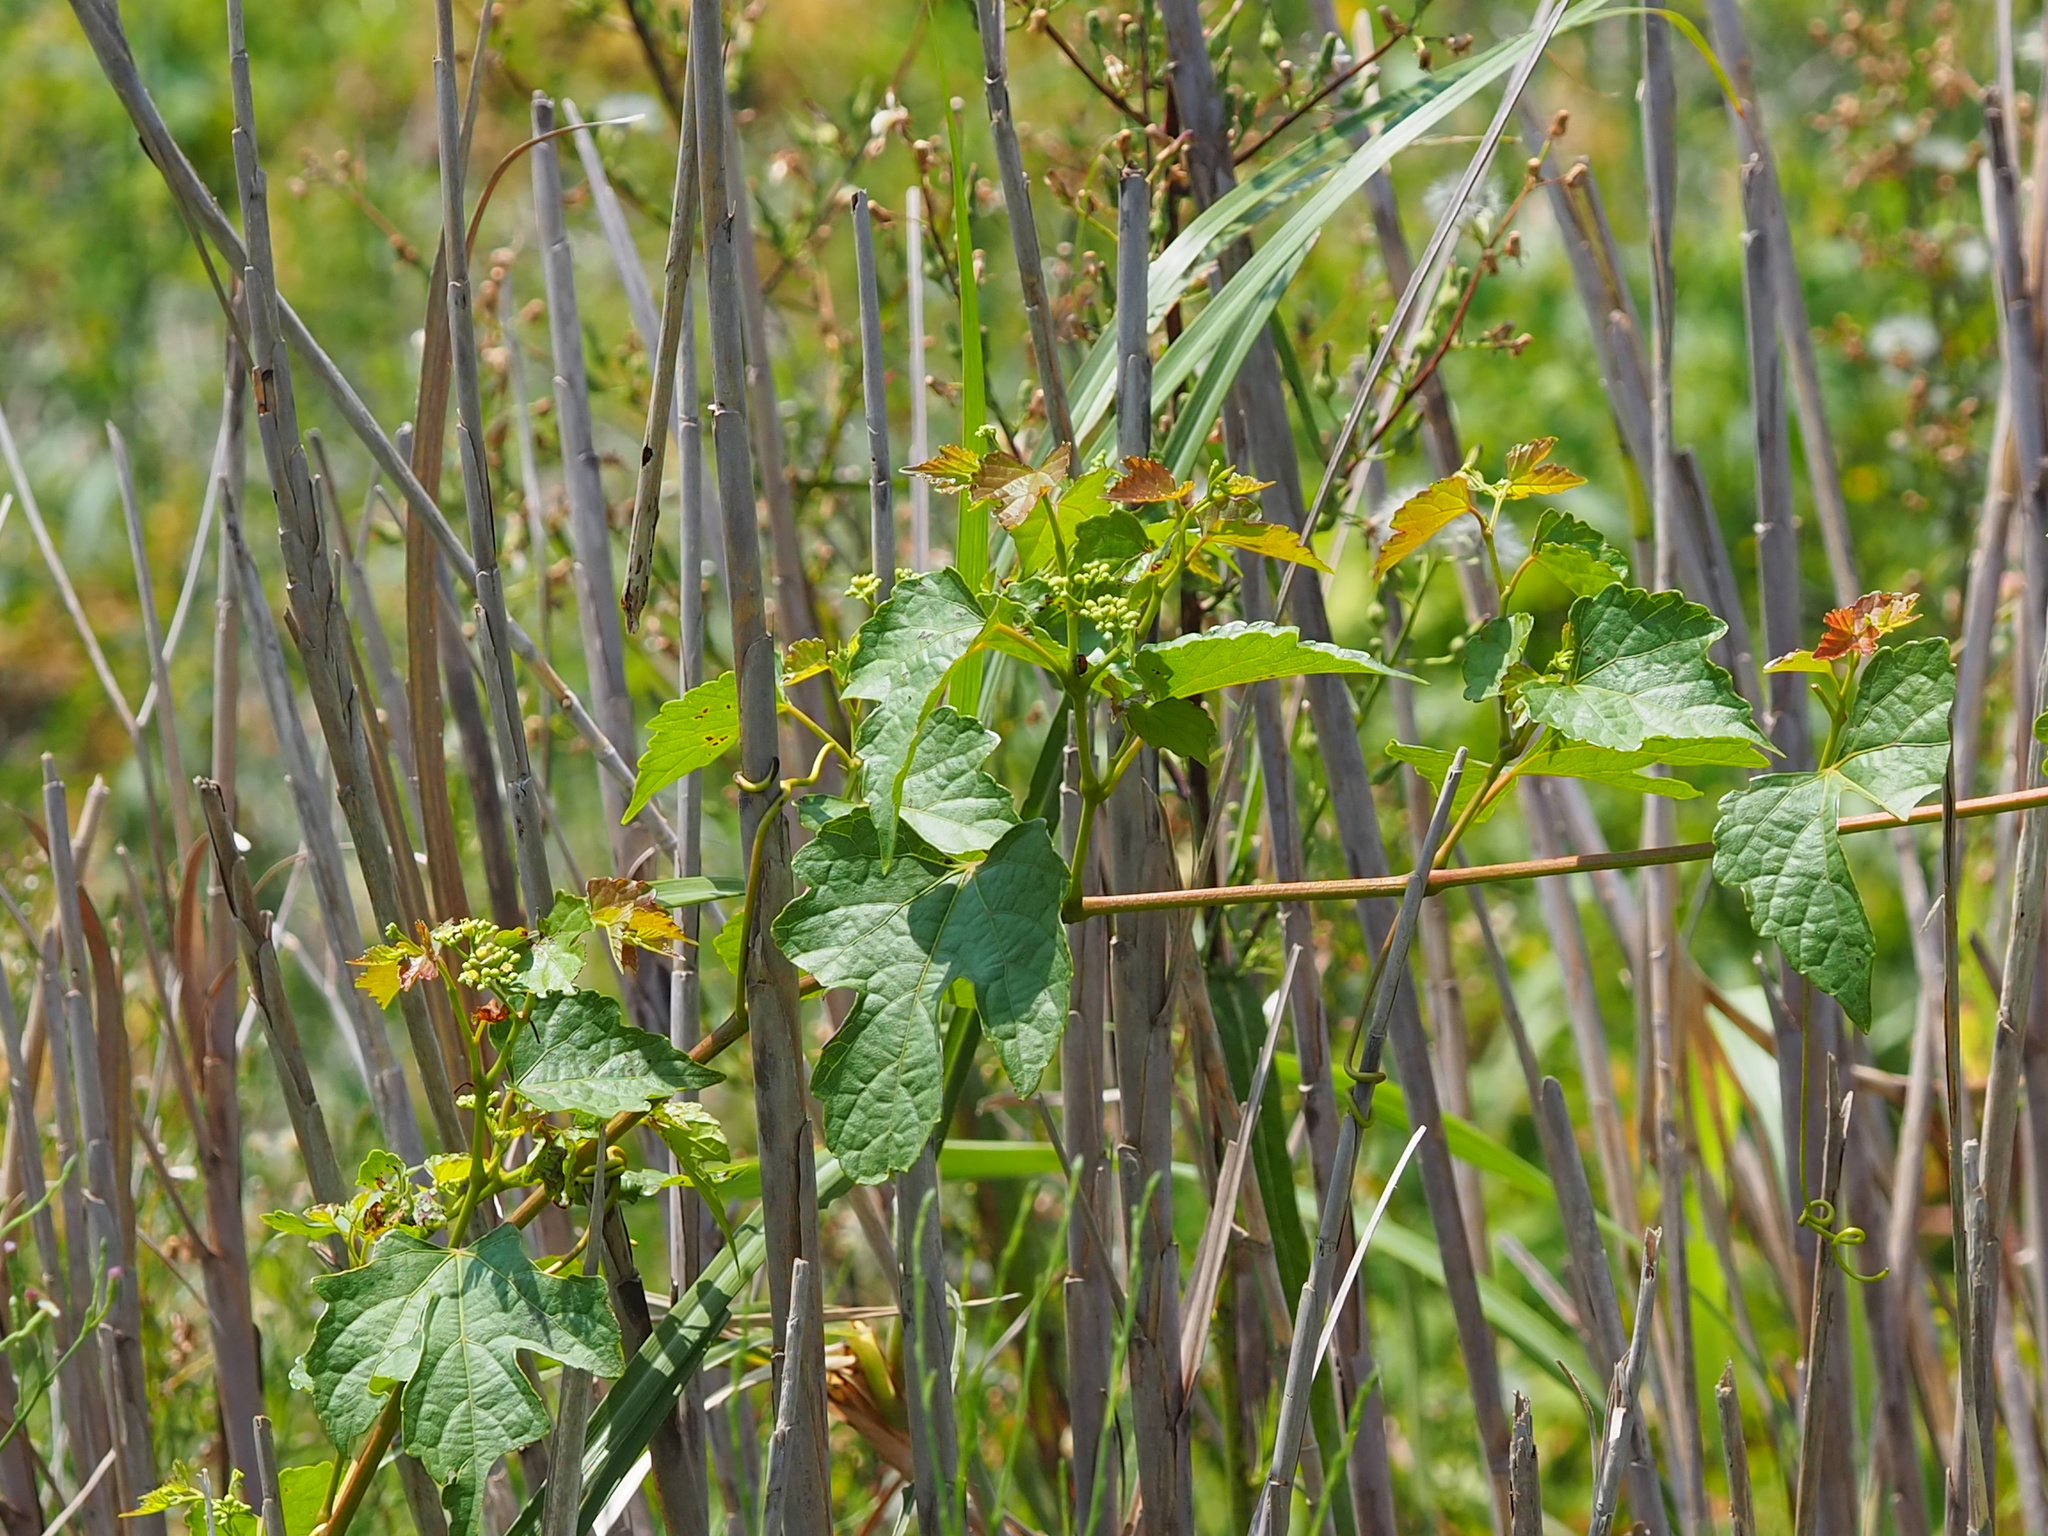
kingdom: Plantae
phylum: Tracheophyta
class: Magnoliopsida
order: Vitales
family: Vitaceae
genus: Ampelopsis
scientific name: Ampelopsis glandulosa
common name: Amur peppervine
